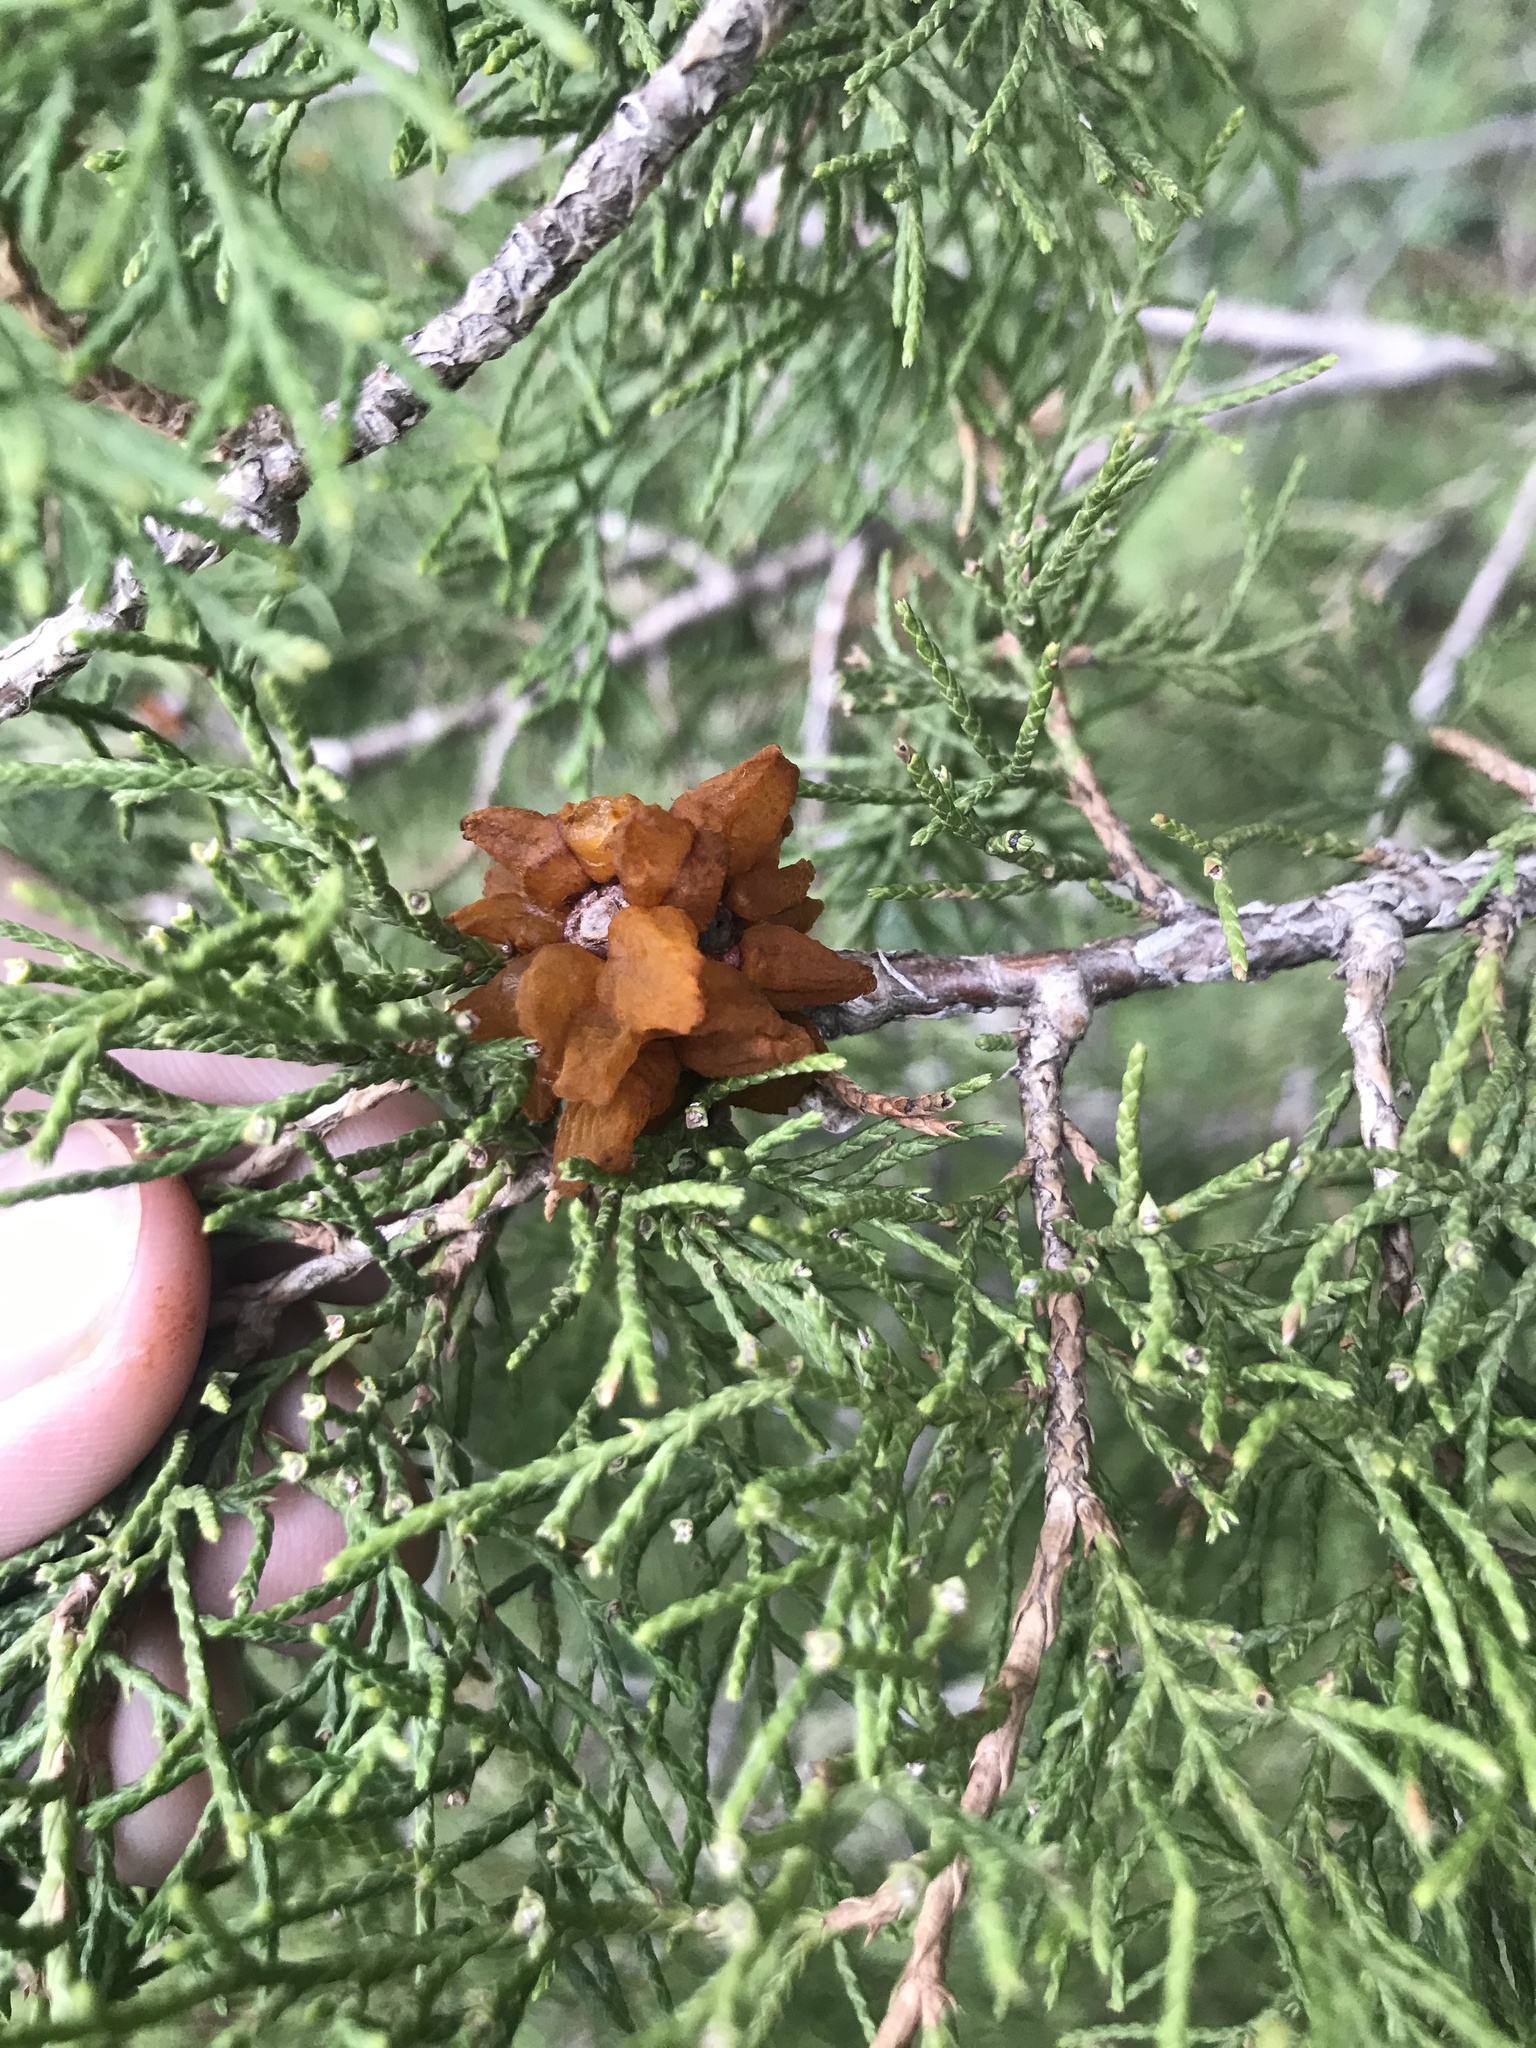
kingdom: Fungi
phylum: Basidiomycota
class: Pucciniomycetes
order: Pucciniales
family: Gymnosporangiaceae
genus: Gymnosporangium
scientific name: Gymnosporangium juniperi-virginianae
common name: Juniper-apple rust
